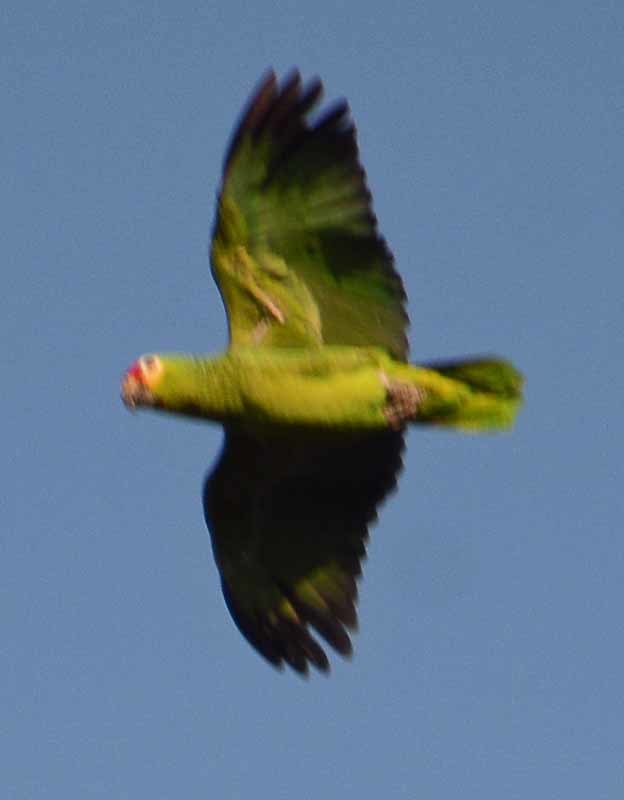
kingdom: Animalia
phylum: Chordata
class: Aves
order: Psittaciformes
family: Psittacidae
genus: Amazona
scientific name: Amazona autumnalis
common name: Red-lored amazon
